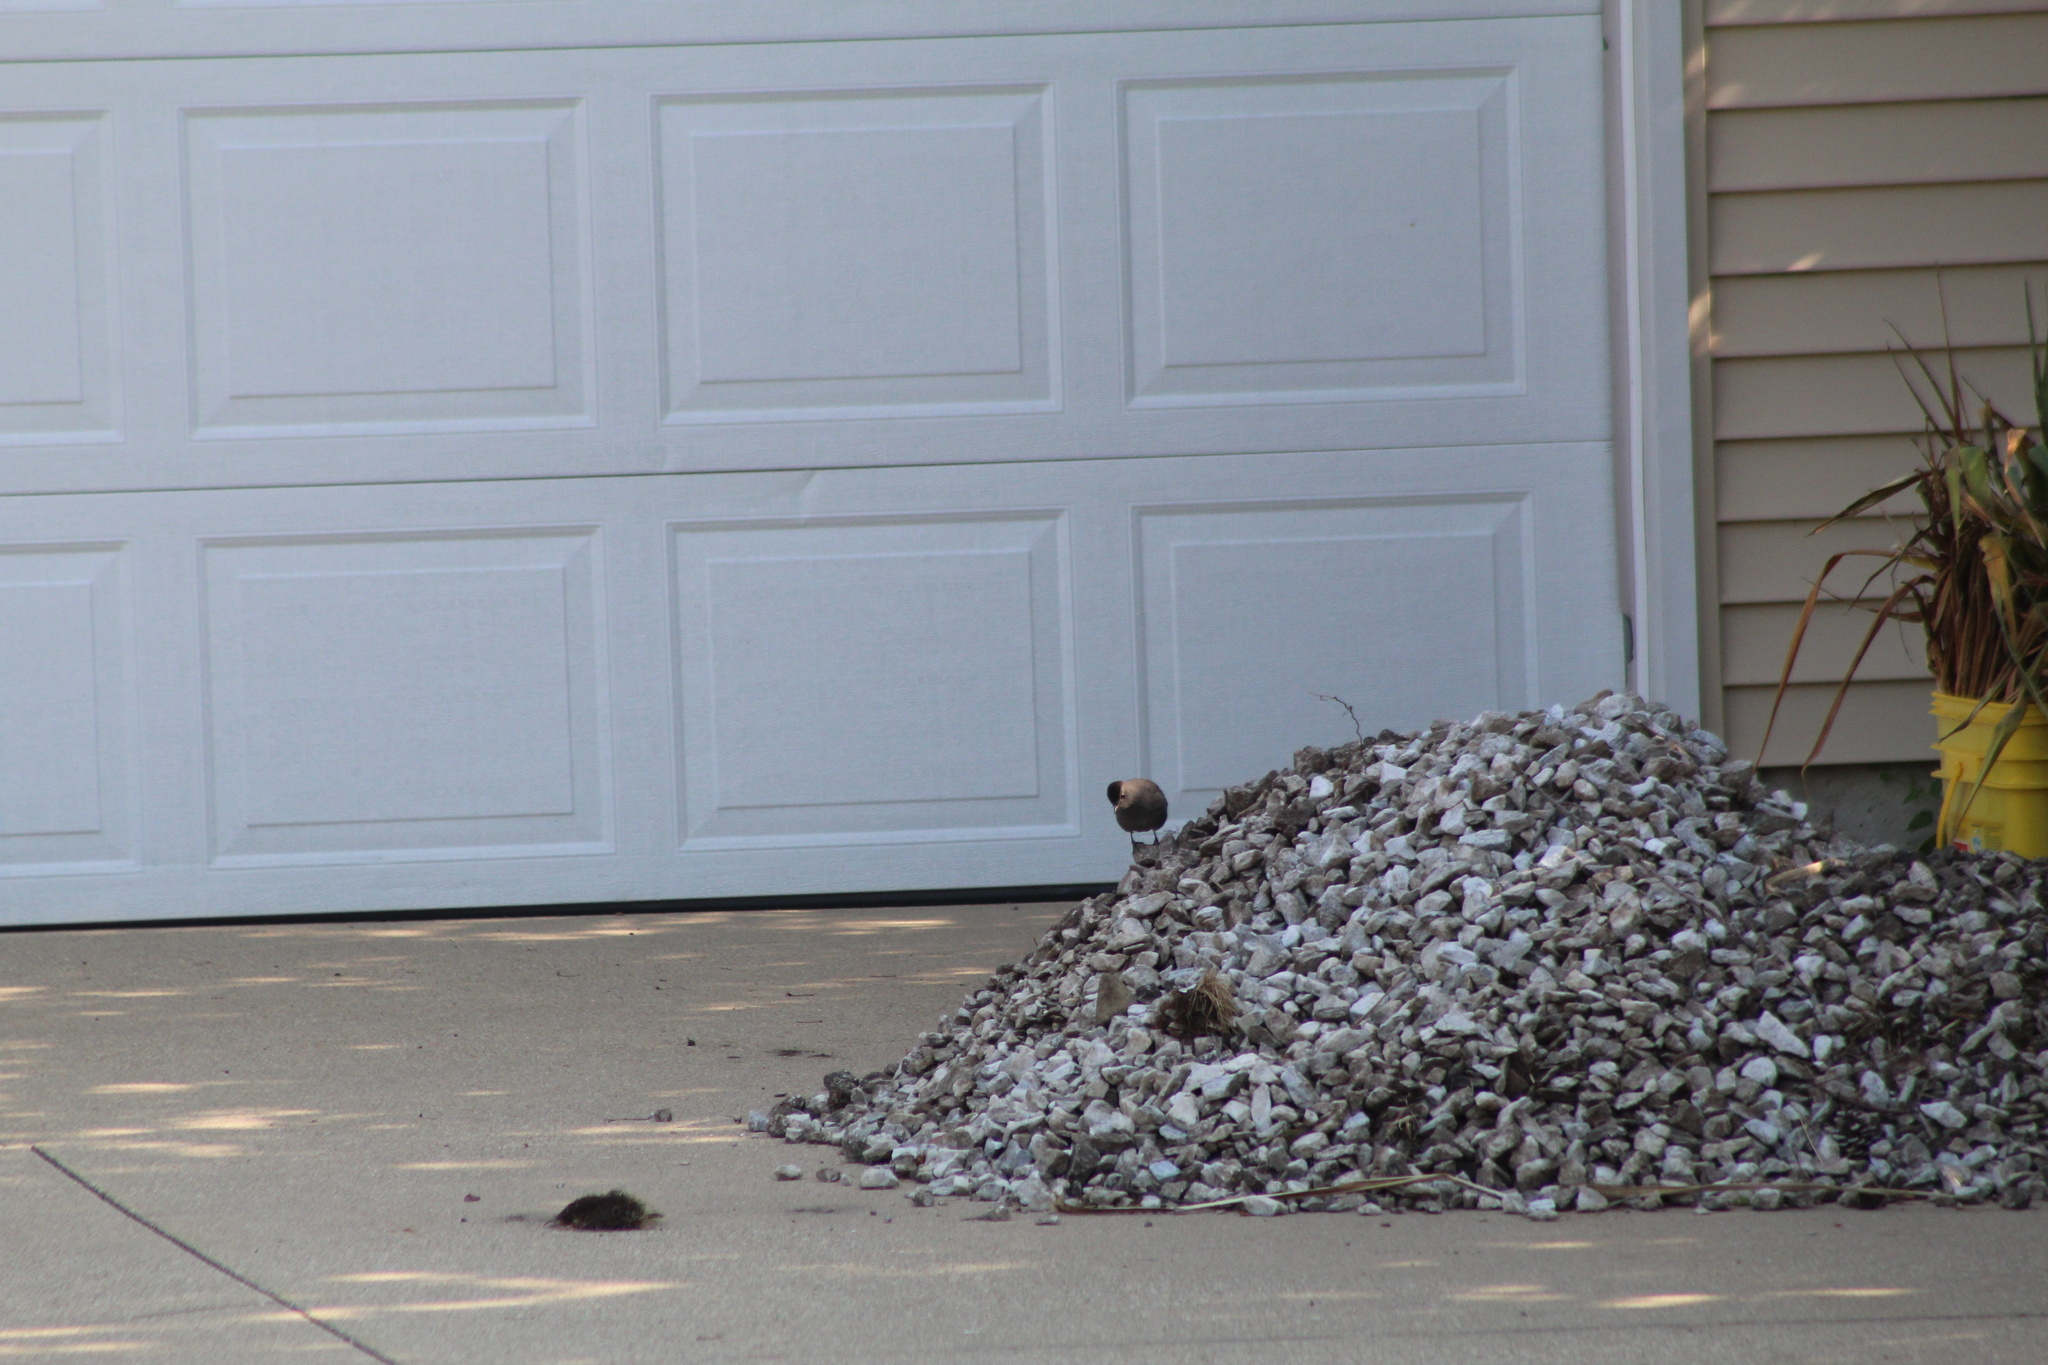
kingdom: Animalia
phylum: Chordata
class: Aves
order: Passeriformes
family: Mimidae
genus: Dumetella
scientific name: Dumetella carolinensis
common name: Gray catbird
